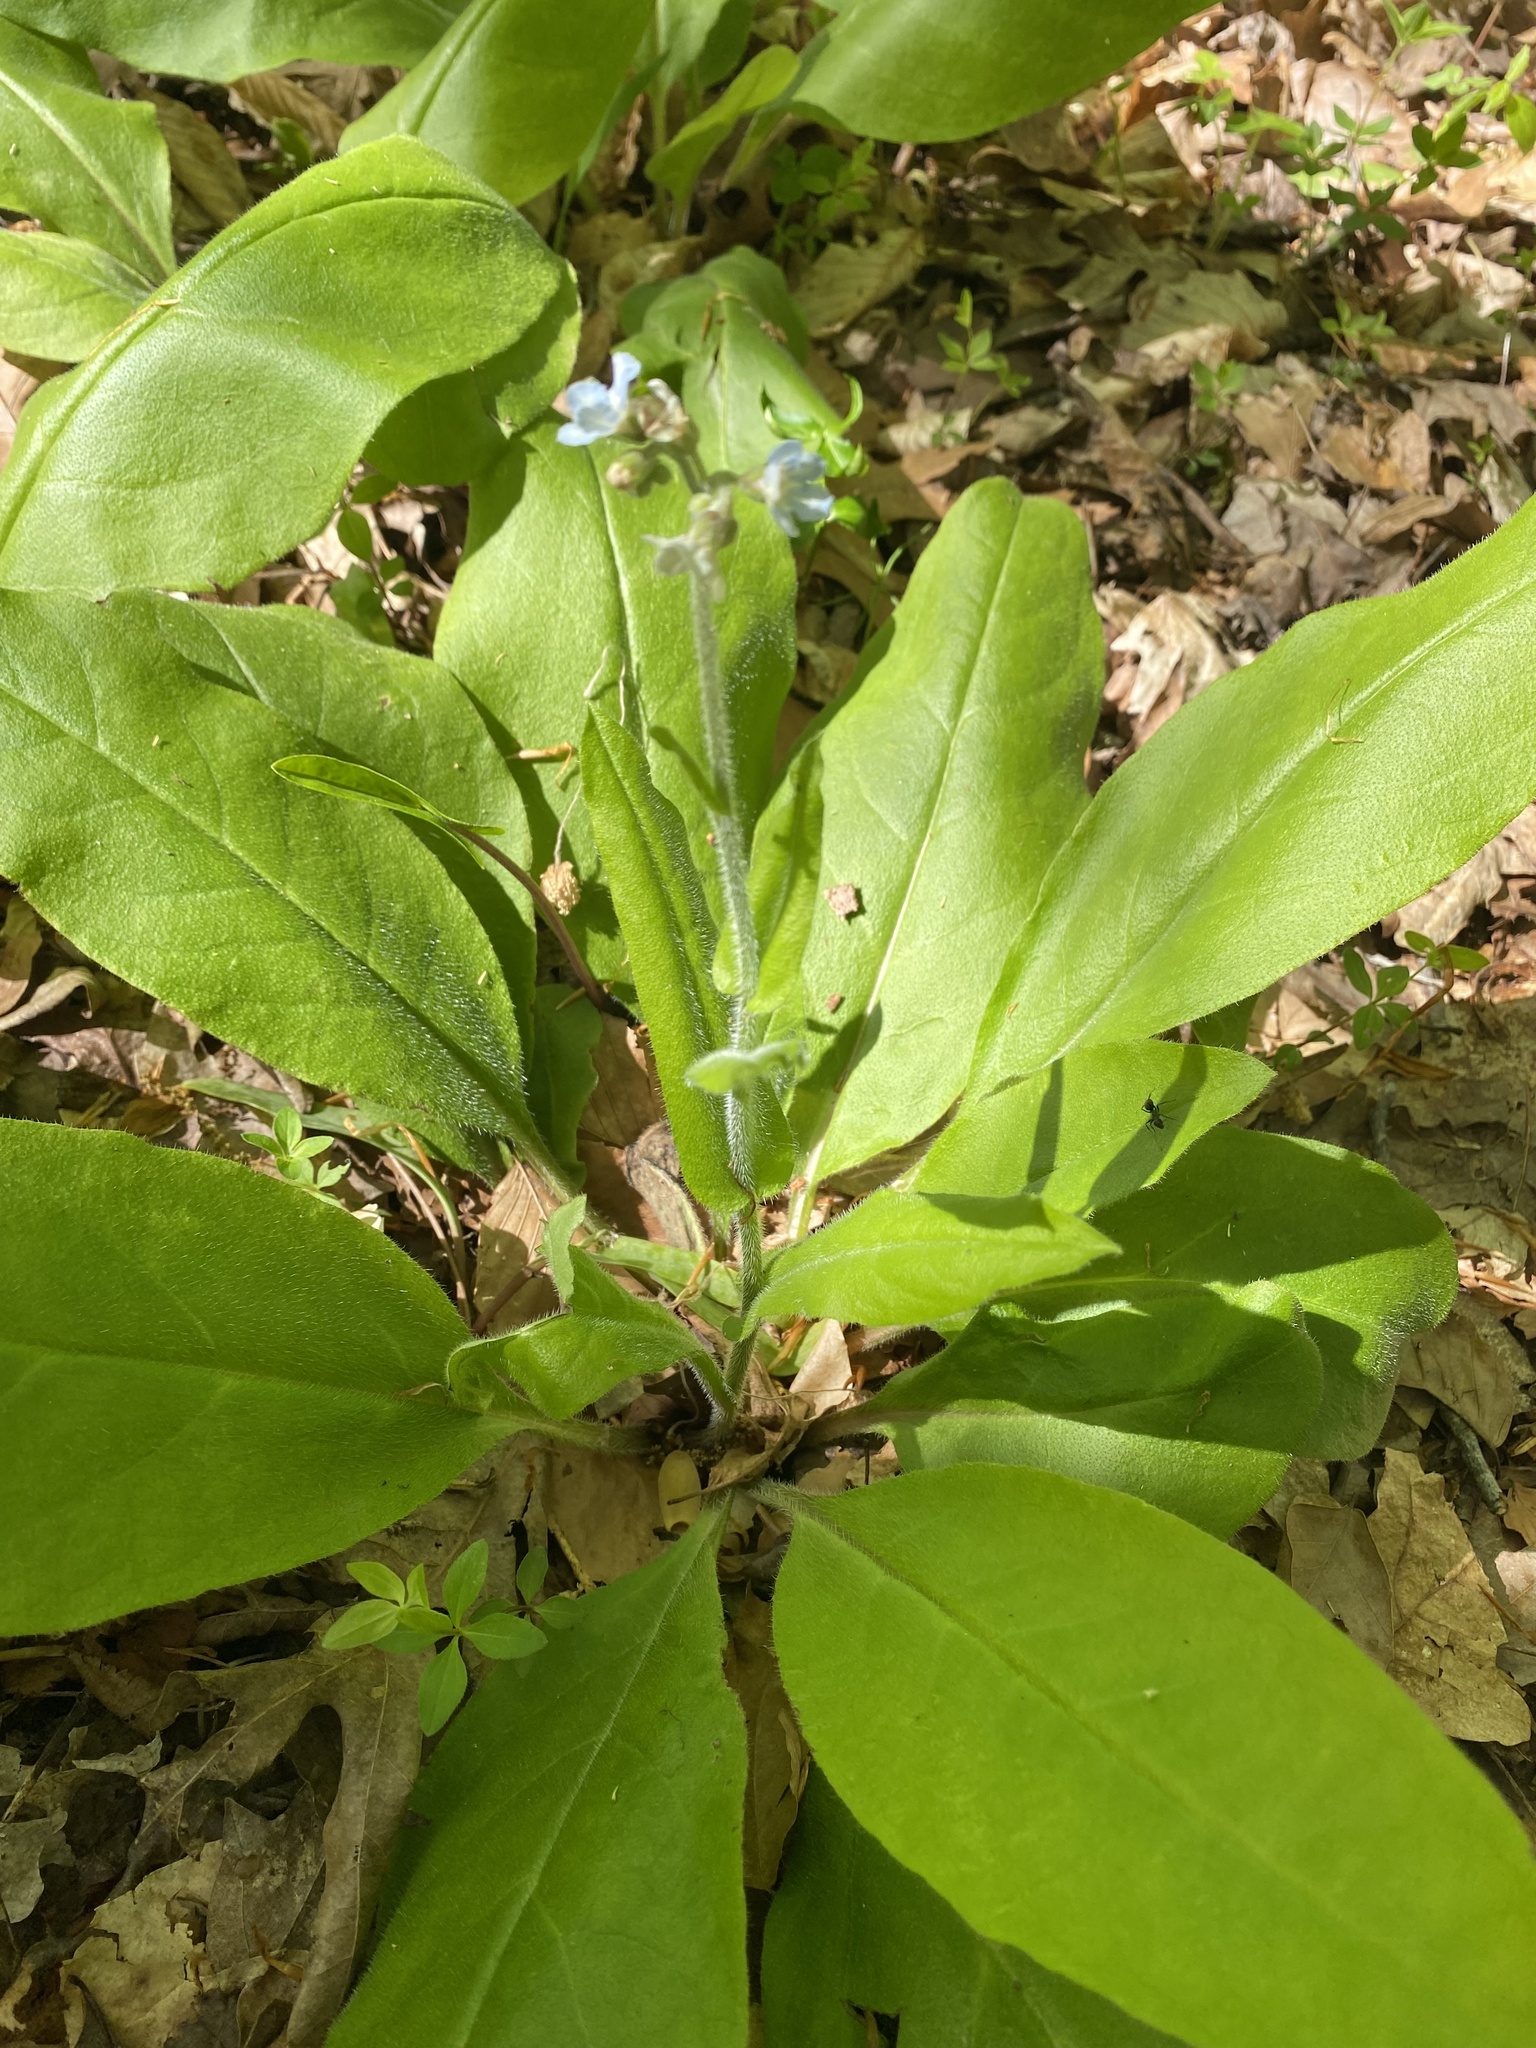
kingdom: Plantae
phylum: Tracheophyta
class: Magnoliopsida
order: Boraginales
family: Boraginaceae
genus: Andersonglossum
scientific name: Andersonglossum virginianum
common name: Wild comfrey
